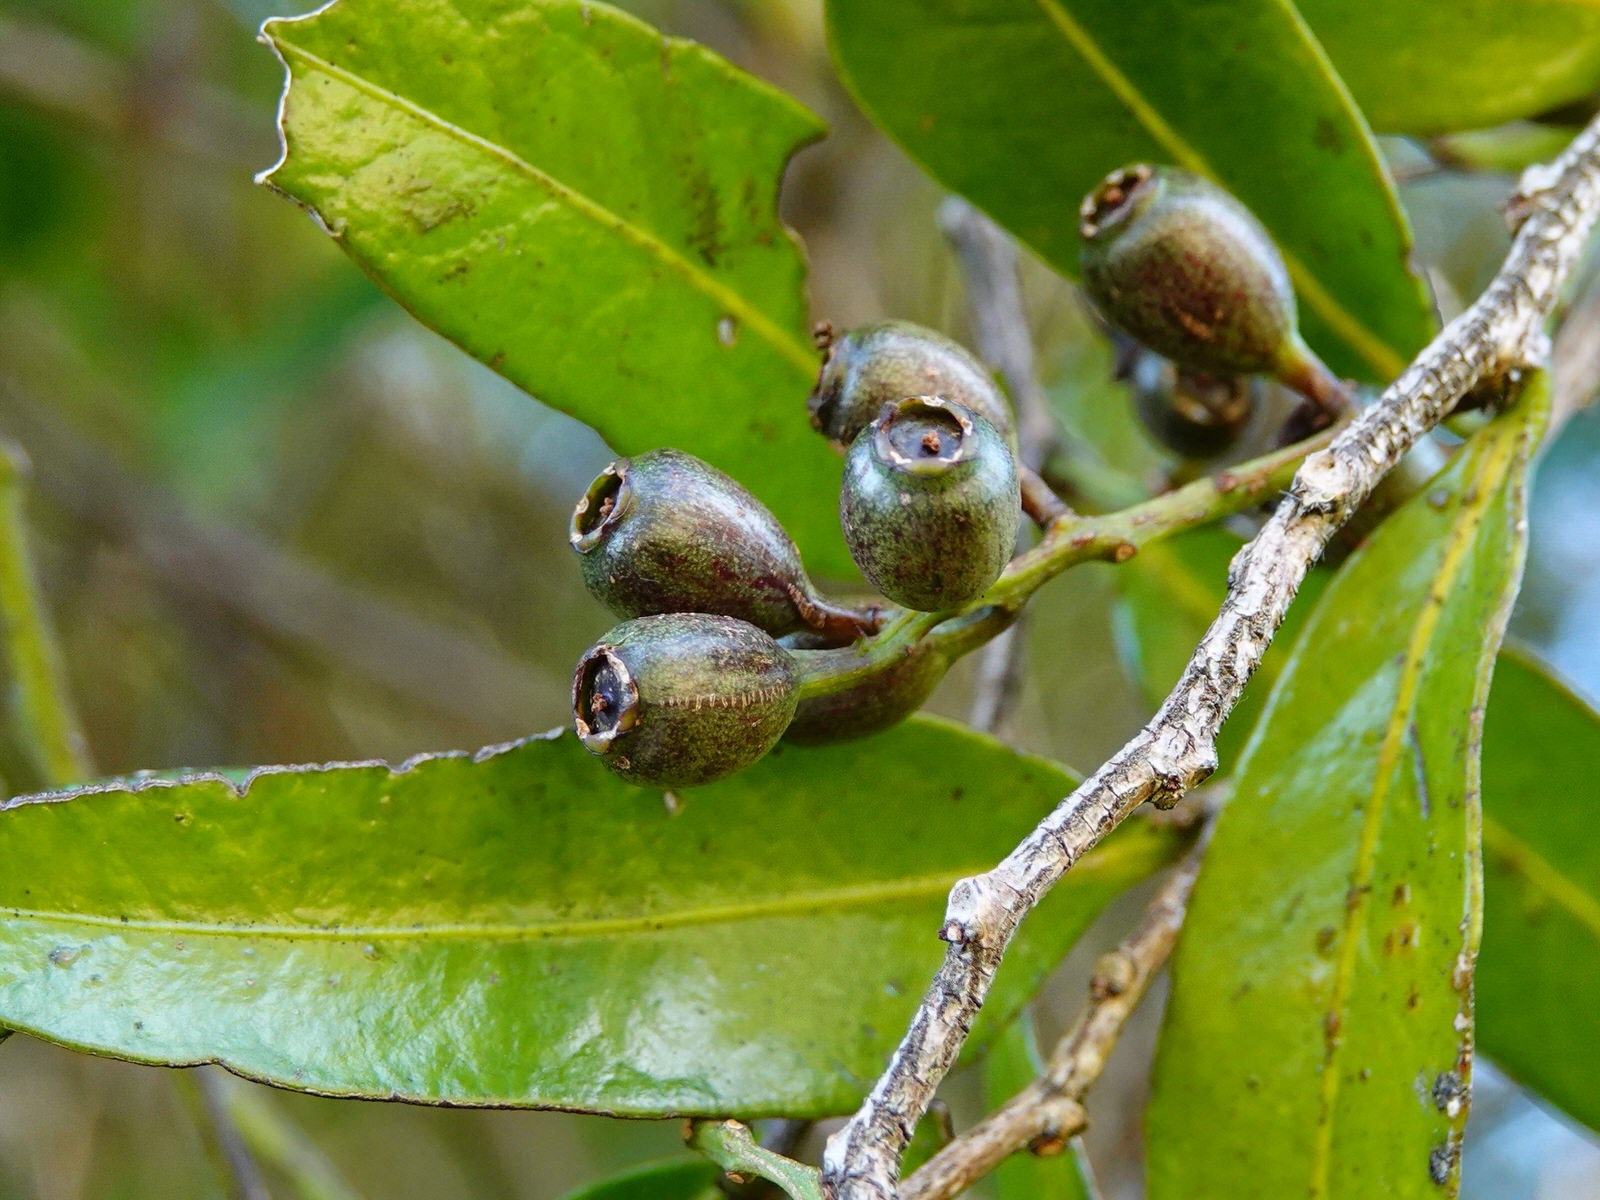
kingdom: Plantae
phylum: Tracheophyta
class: Magnoliopsida
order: Santalales
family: Nanodeaceae
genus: Mida
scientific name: Mida salicifolia
